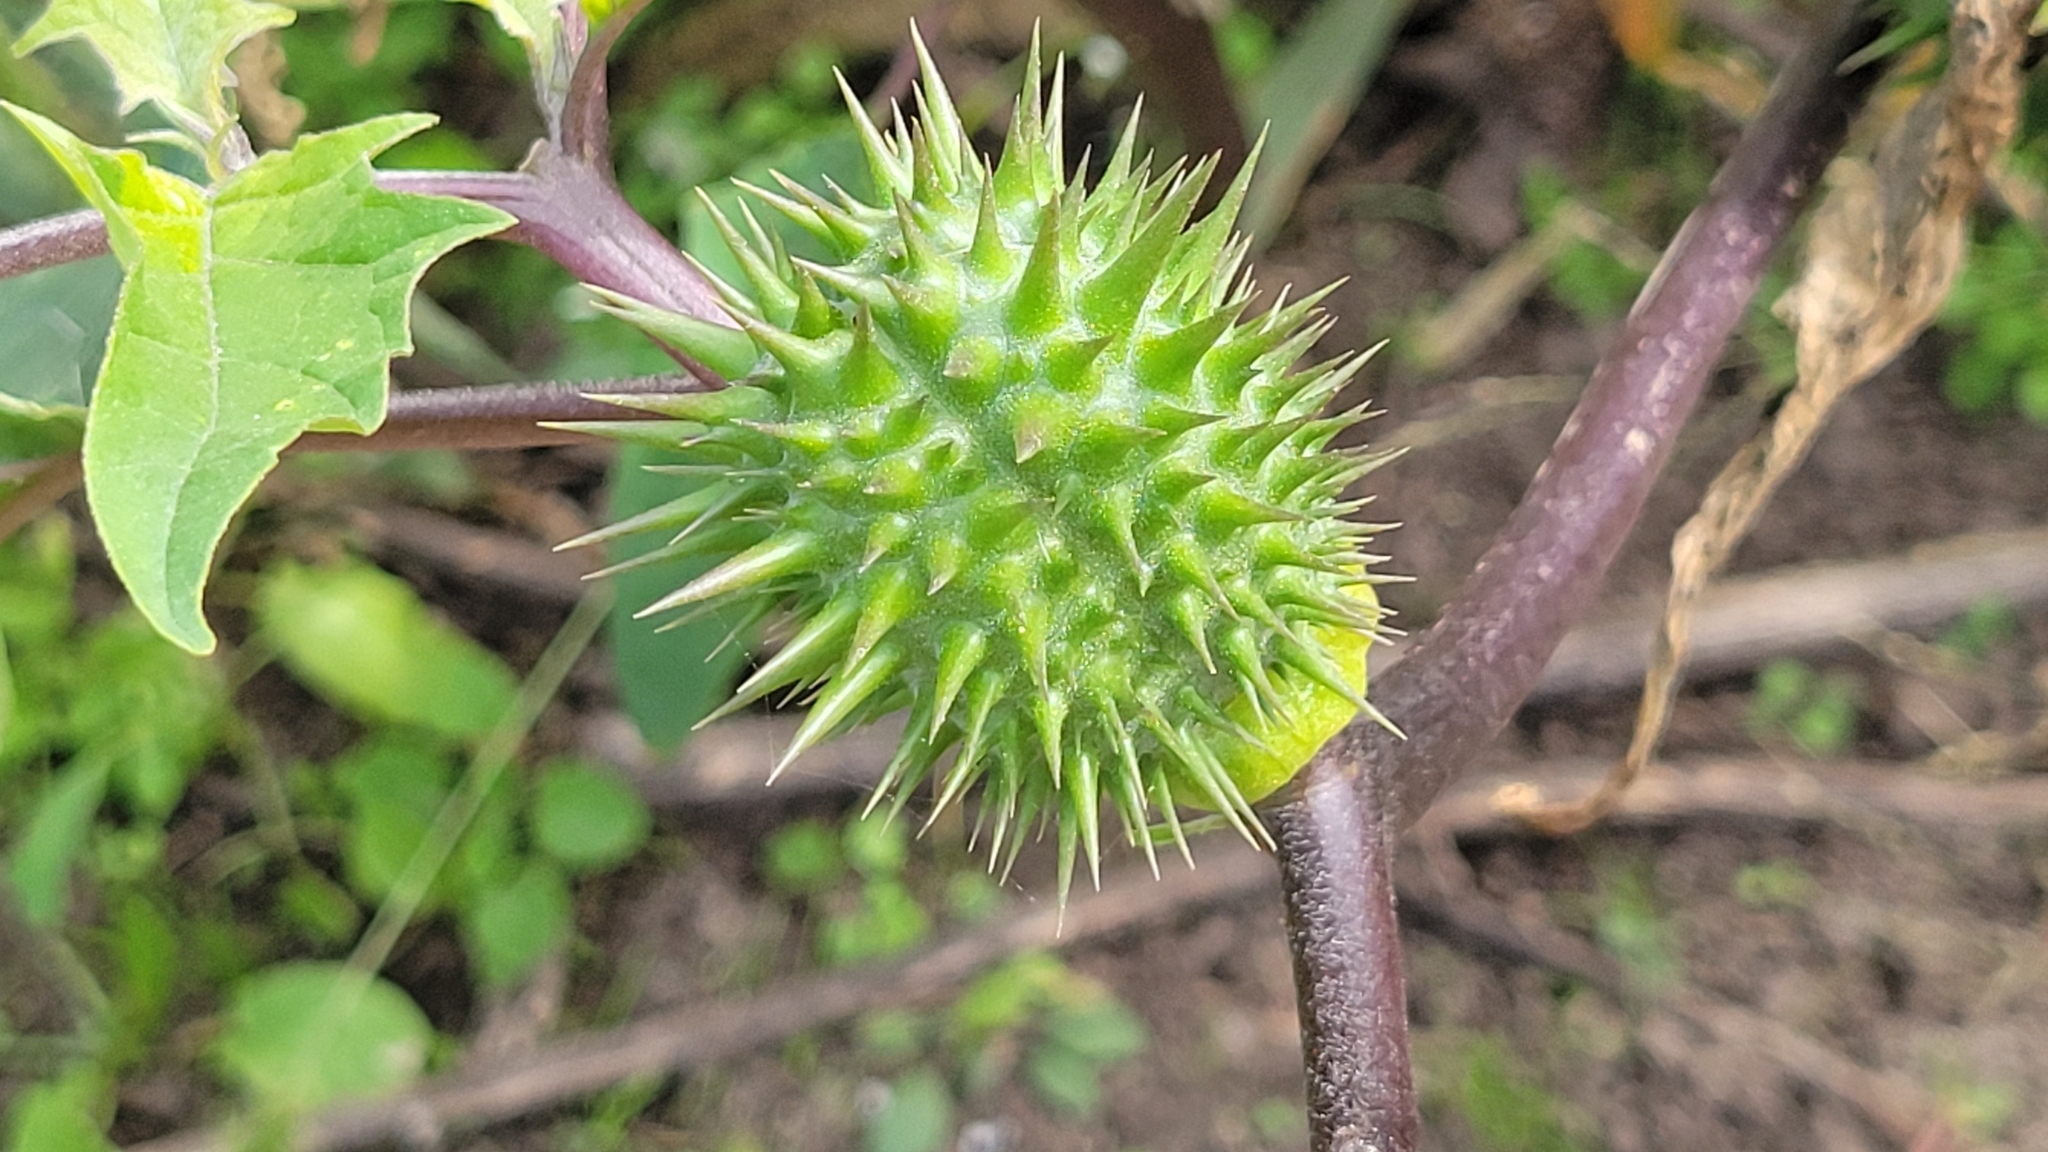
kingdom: Plantae
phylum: Tracheophyta
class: Magnoliopsida
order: Solanales
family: Solanaceae
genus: Datura
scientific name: Datura stramonium
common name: Thorn-apple
